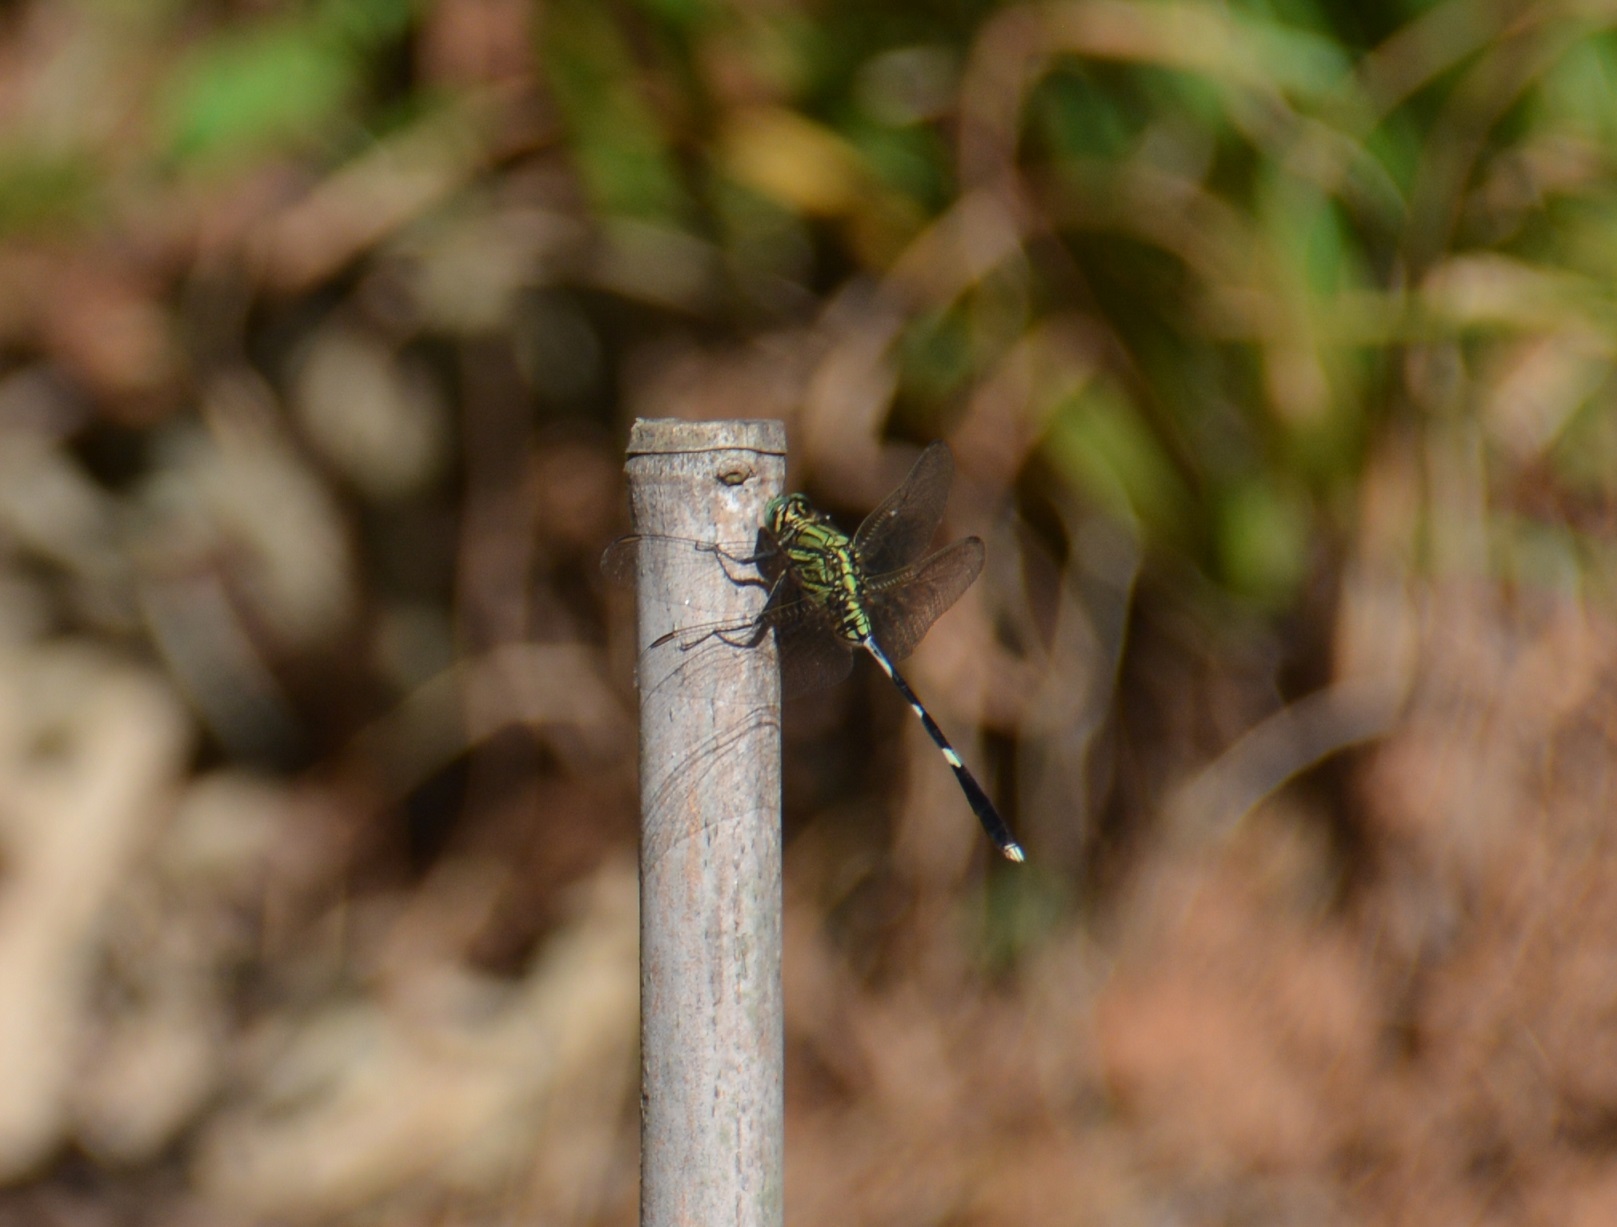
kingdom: Animalia
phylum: Arthropoda
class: Insecta
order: Odonata
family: Libellulidae
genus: Orthetrum
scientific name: Orthetrum sabina
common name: Slender skimmer
